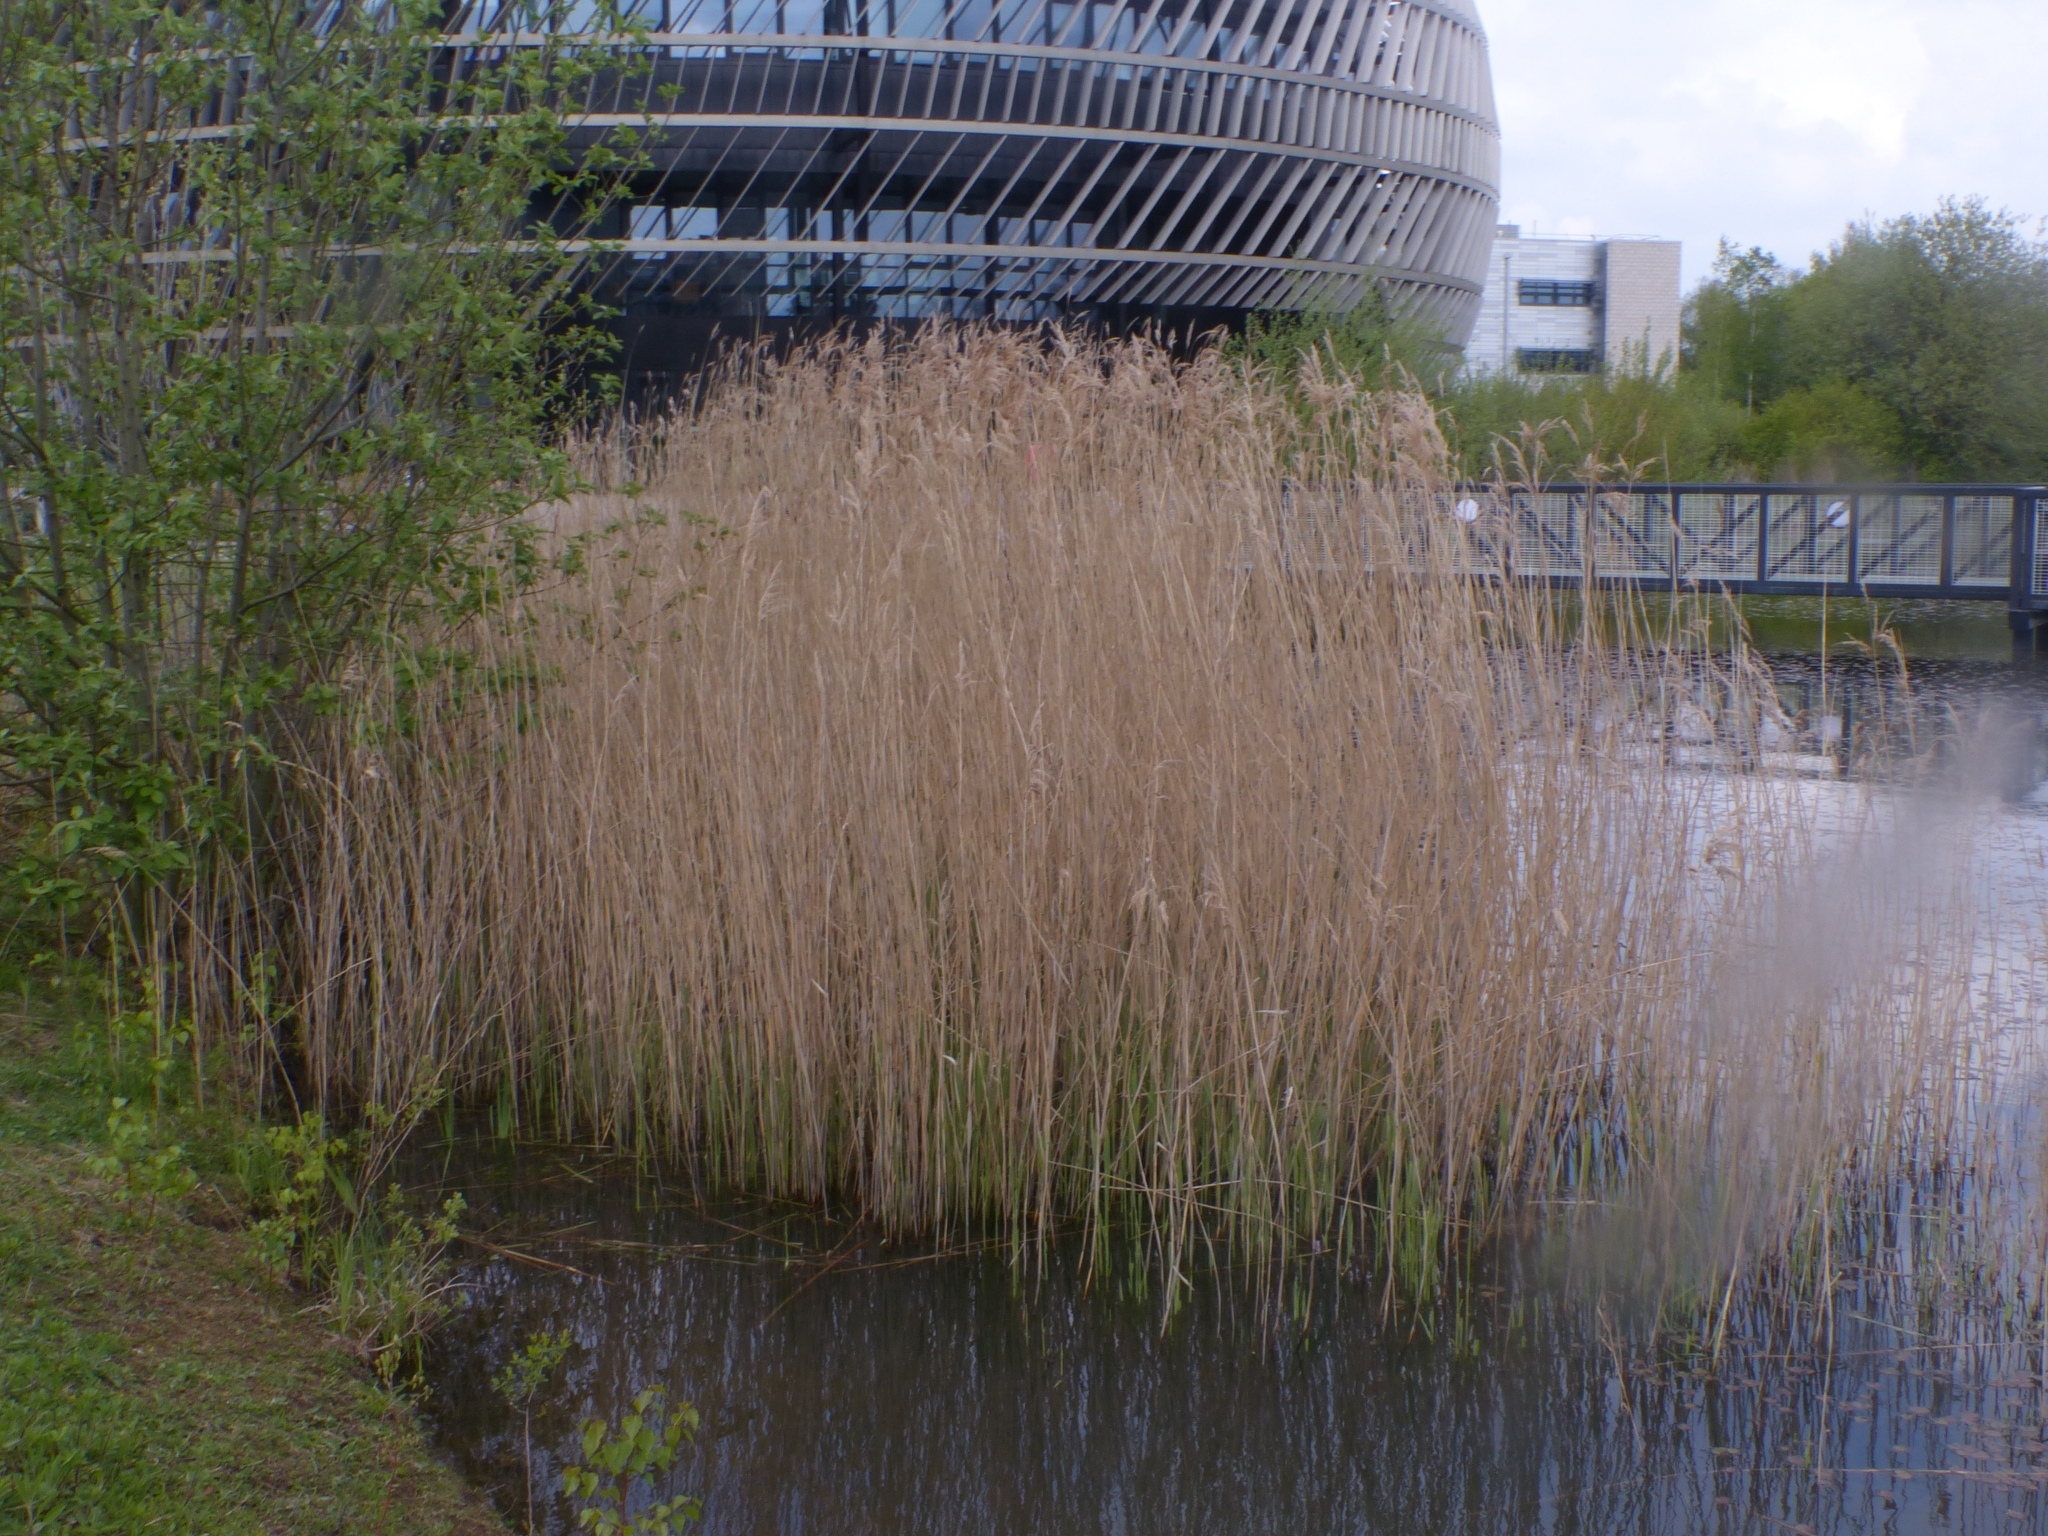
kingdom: Plantae
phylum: Tracheophyta
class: Liliopsida
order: Poales
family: Poaceae
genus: Phragmites
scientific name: Phragmites australis
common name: Common reed
